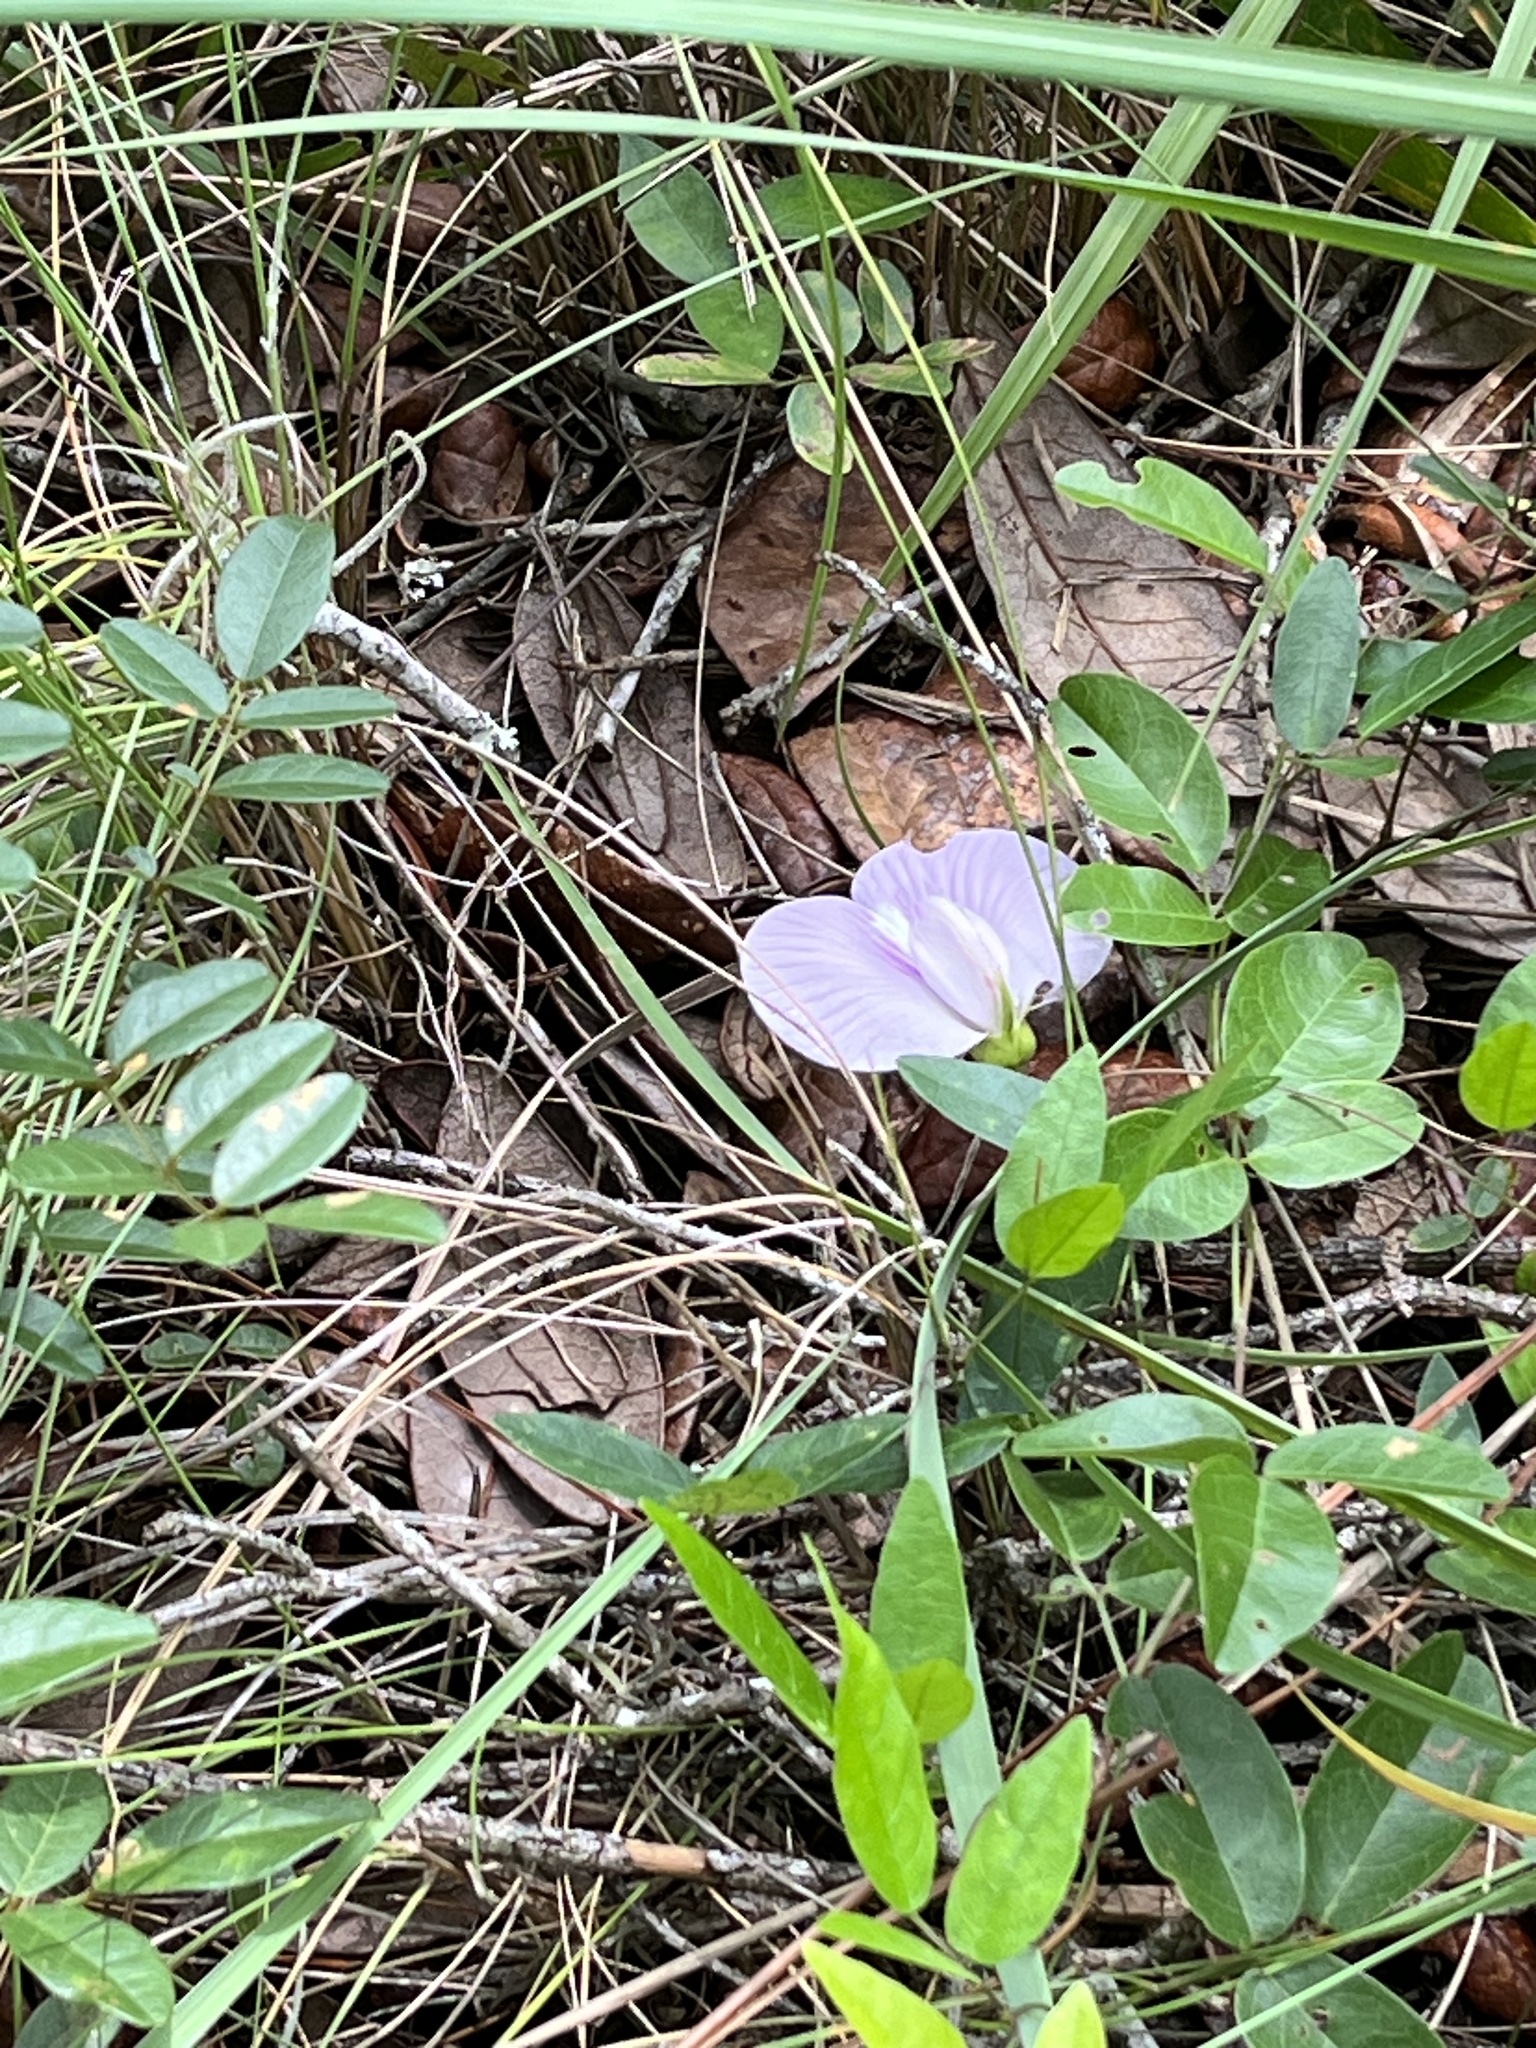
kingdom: Plantae
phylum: Tracheophyta
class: Magnoliopsida
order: Fabales
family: Fabaceae
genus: Centrosema
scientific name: Centrosema arenicola
